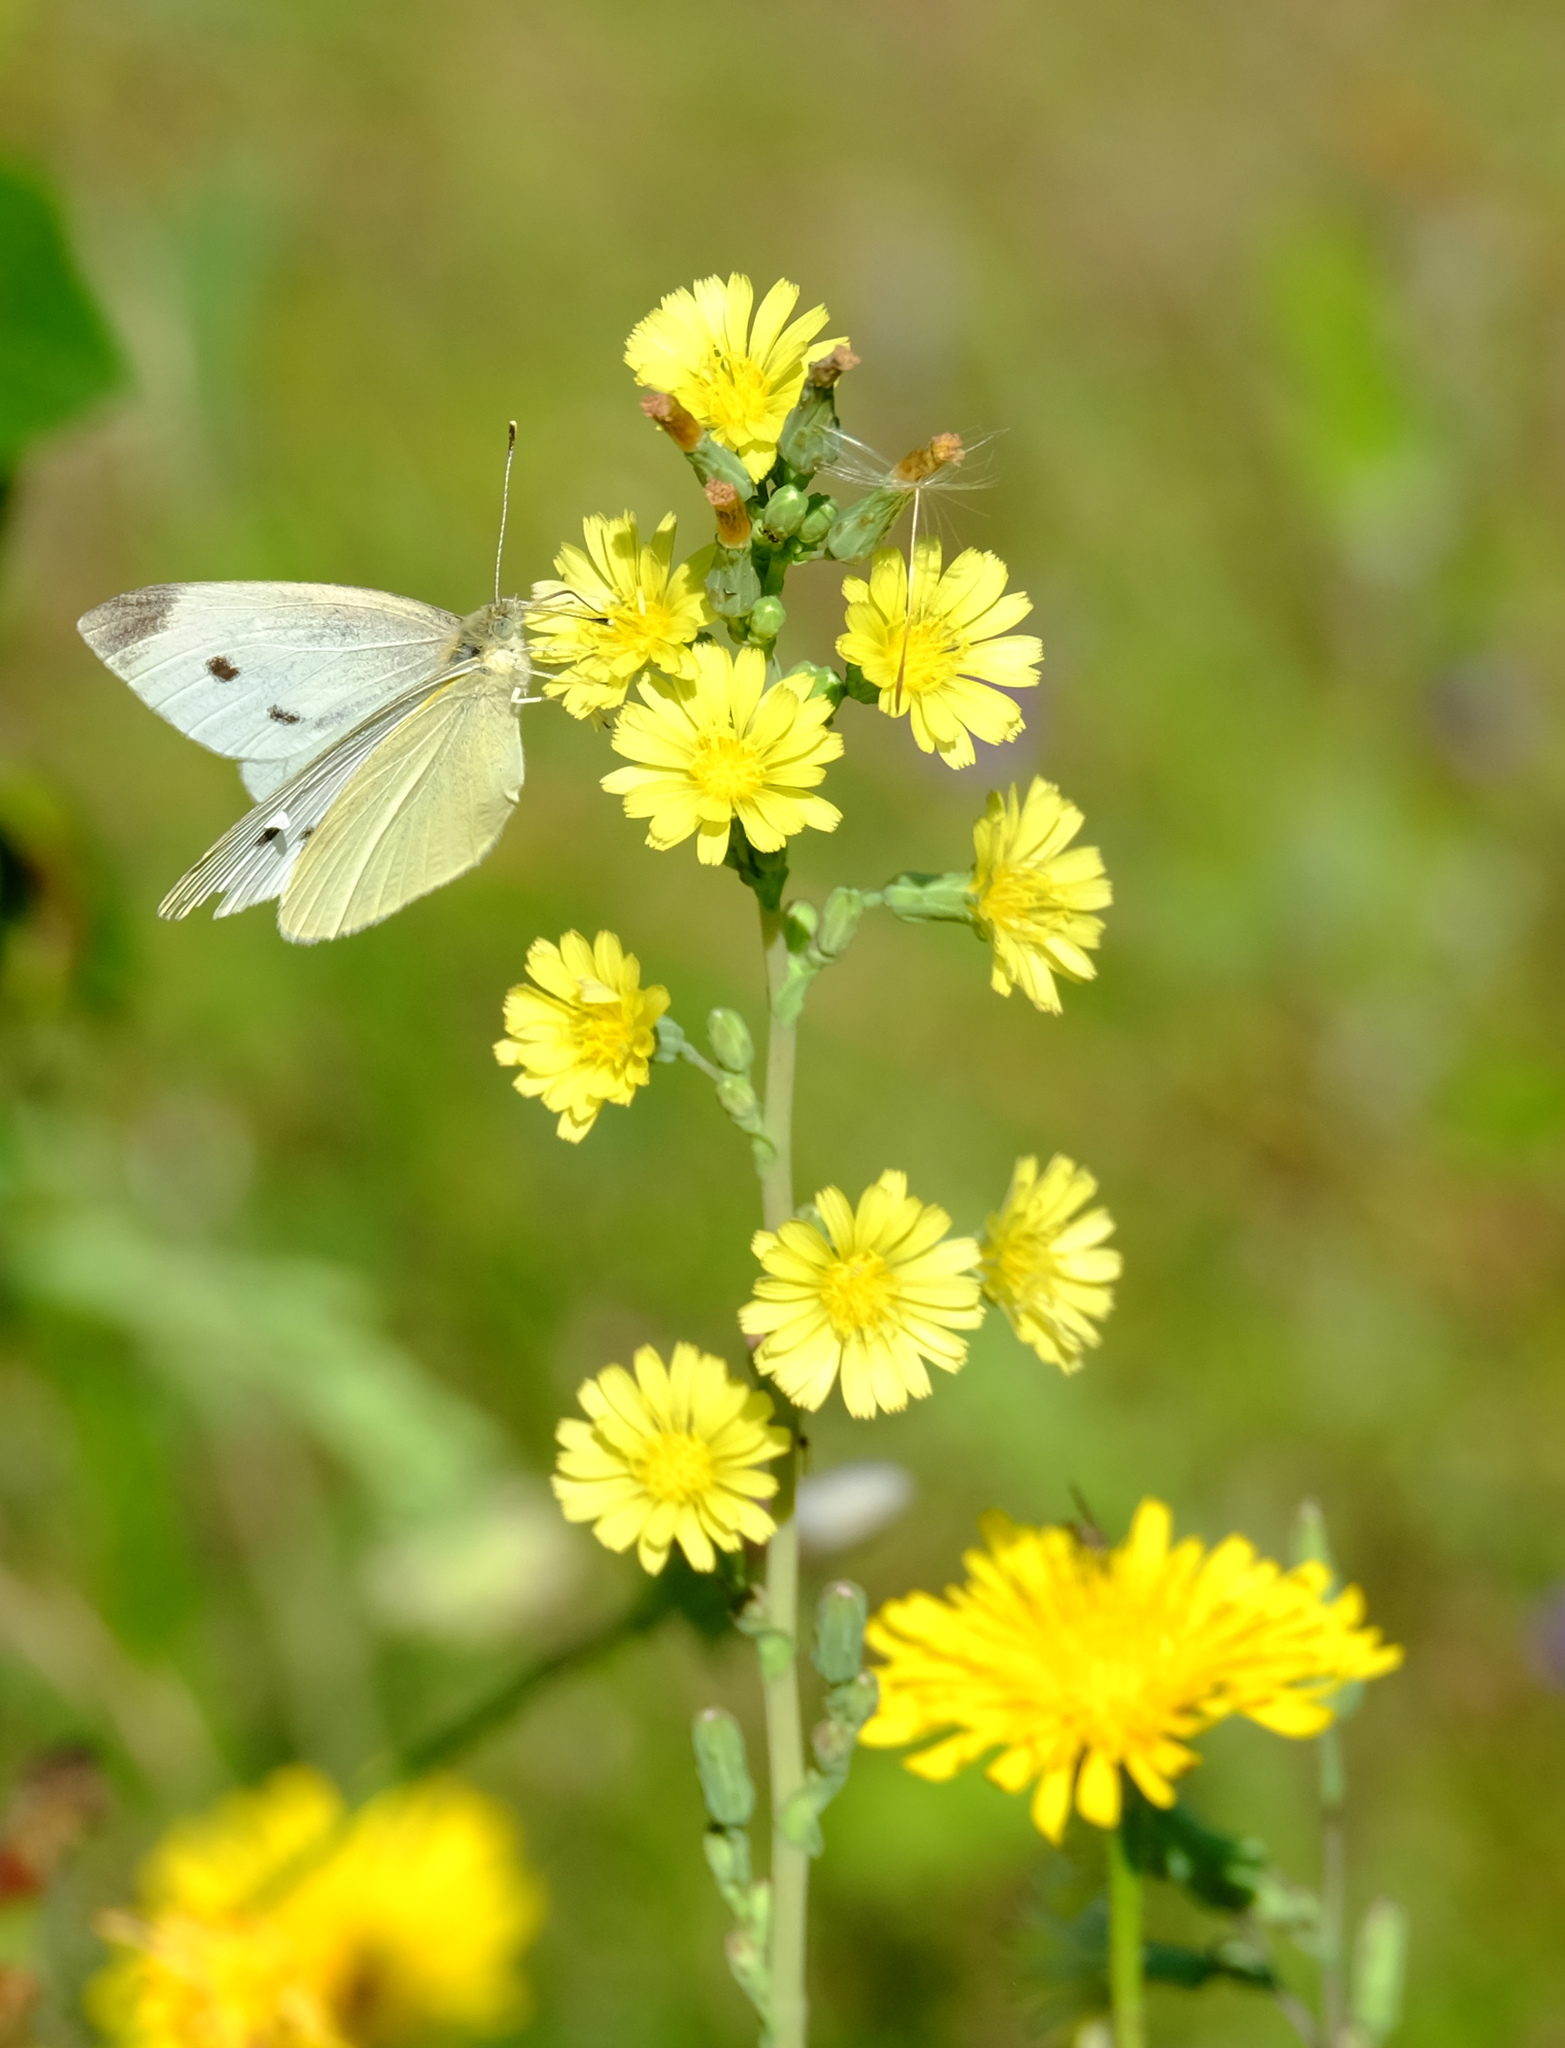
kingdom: Animalia
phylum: Arthropoda
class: Insecta
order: Lepidoptera
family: Pieridae
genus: Pieris
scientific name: Pieris rapae
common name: Small white
